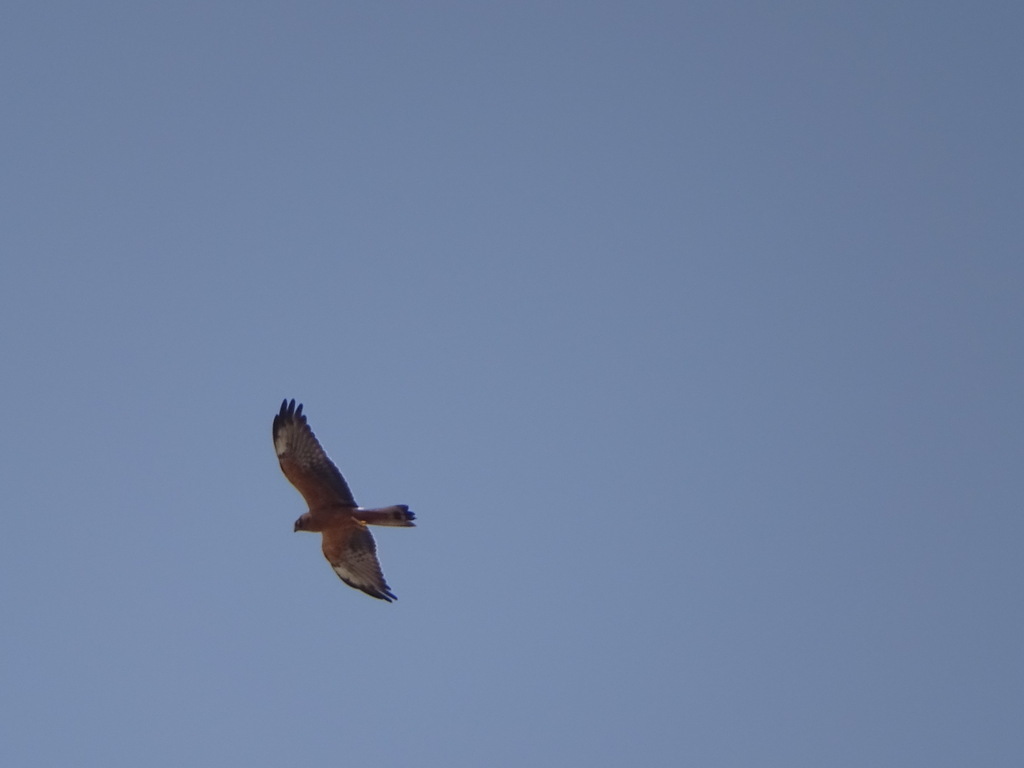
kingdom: Animalia
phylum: Chordata
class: Aves
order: Accipitriformes
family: Accipitridae
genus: Circus
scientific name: Circus pygargus
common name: Montagu's harrier
